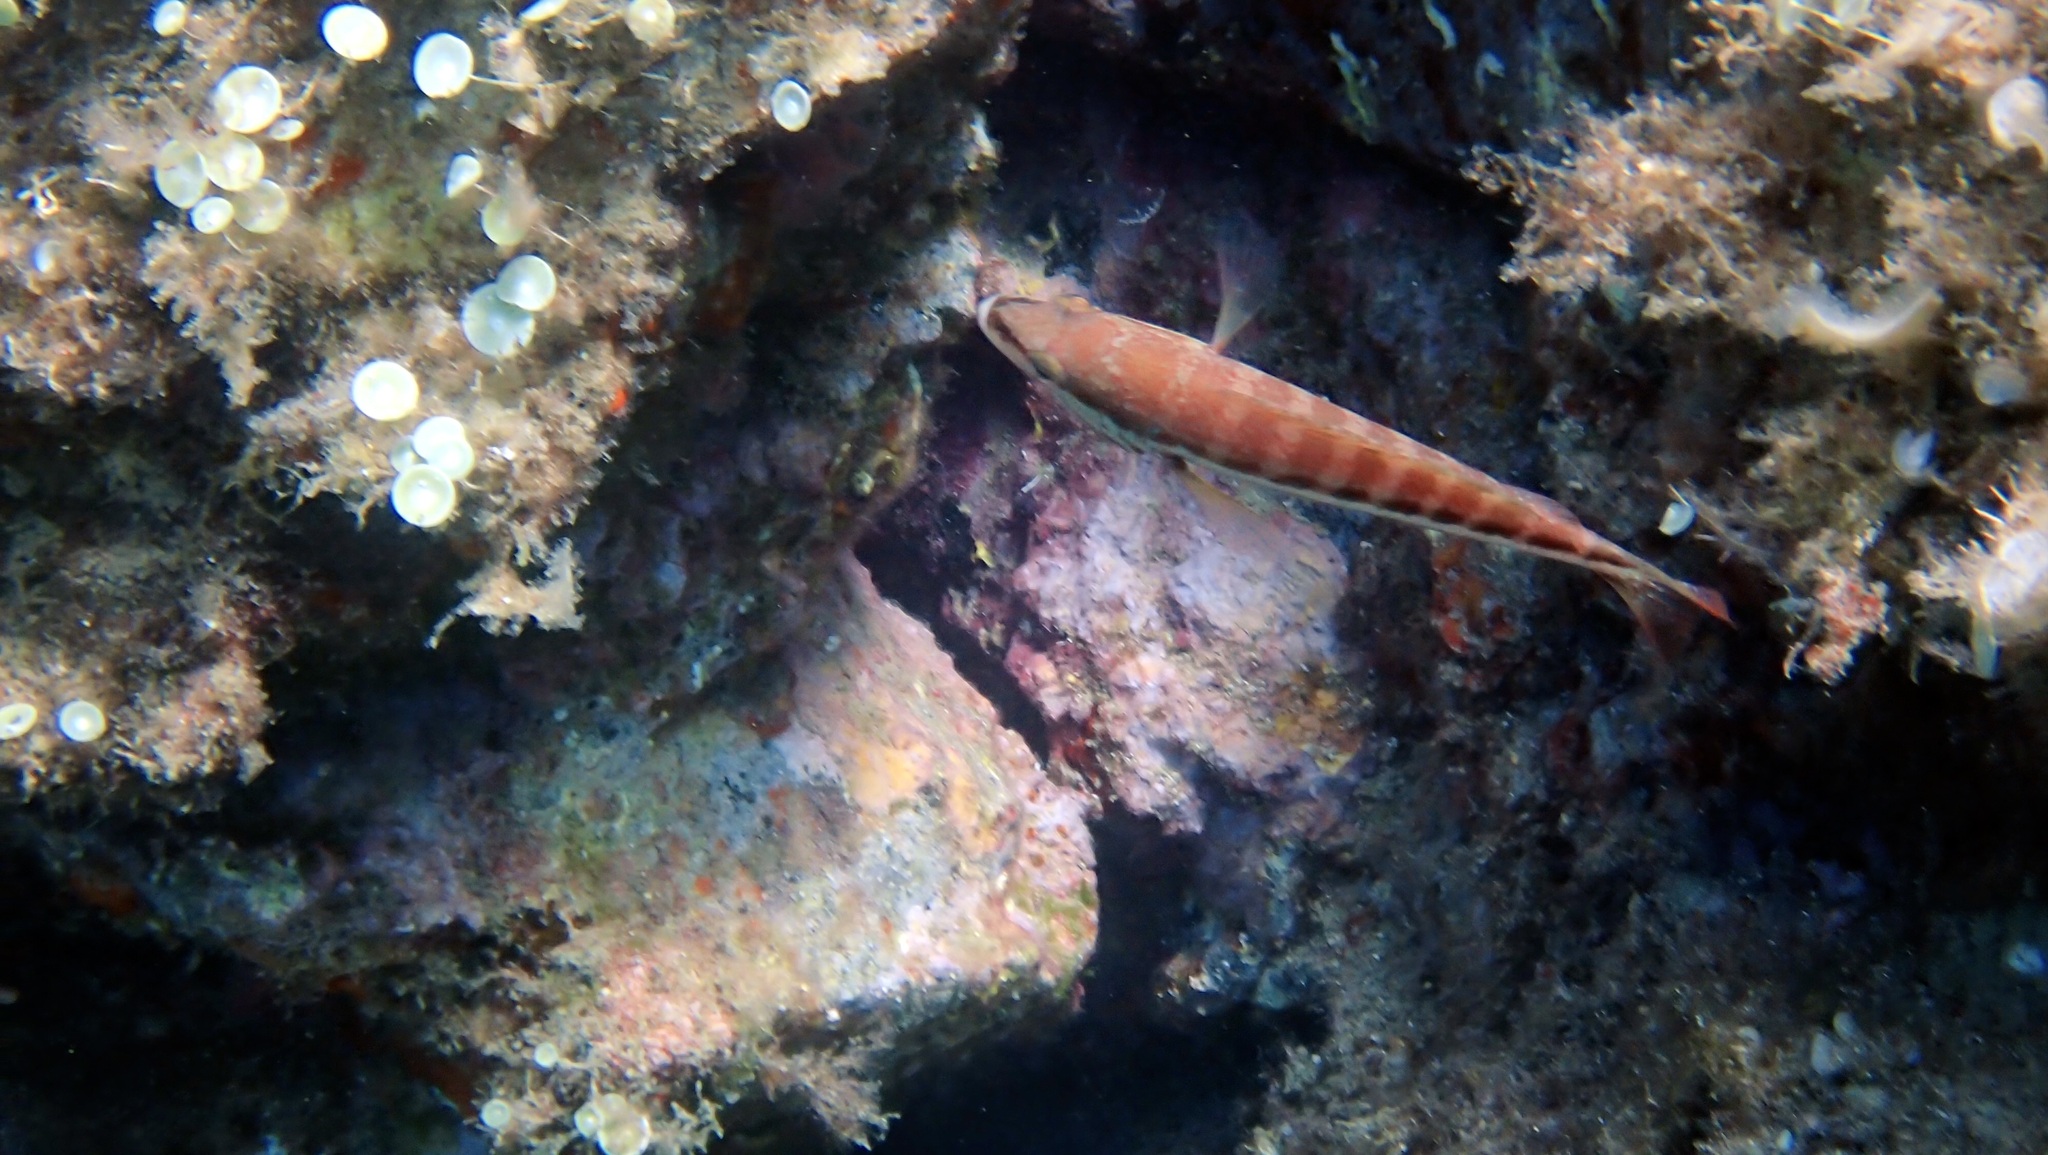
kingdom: Animalia
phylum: Chordata
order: Perciformes
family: Serranidae
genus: Serranus
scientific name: Serranus cabrilla
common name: Comber
